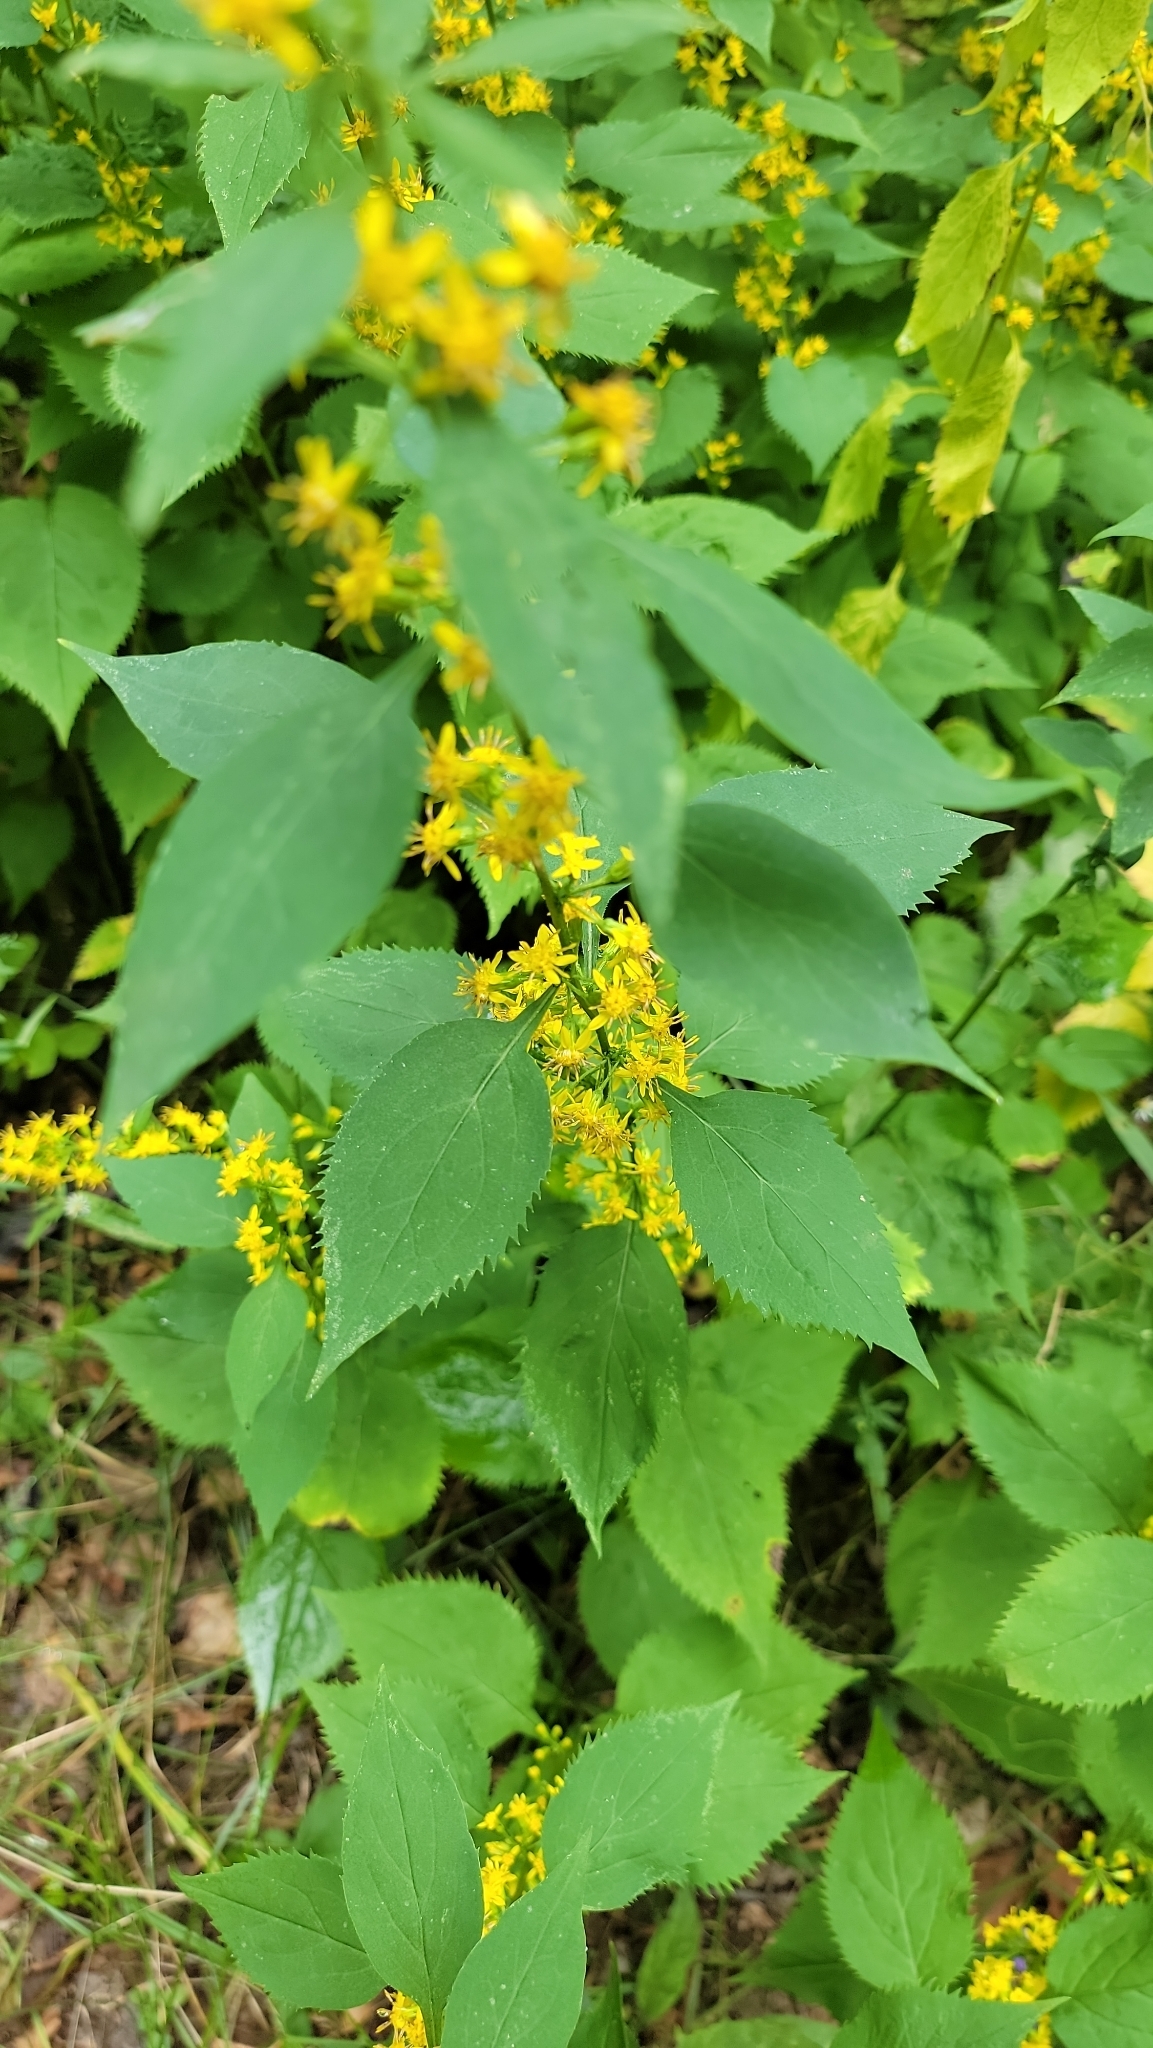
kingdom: Plantae
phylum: Tracheophyta
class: Magnoliopsida
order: Asterales
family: Asteraceae
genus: Solidago
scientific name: Solidago flexicaulis
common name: Zig-zag goldenrod
